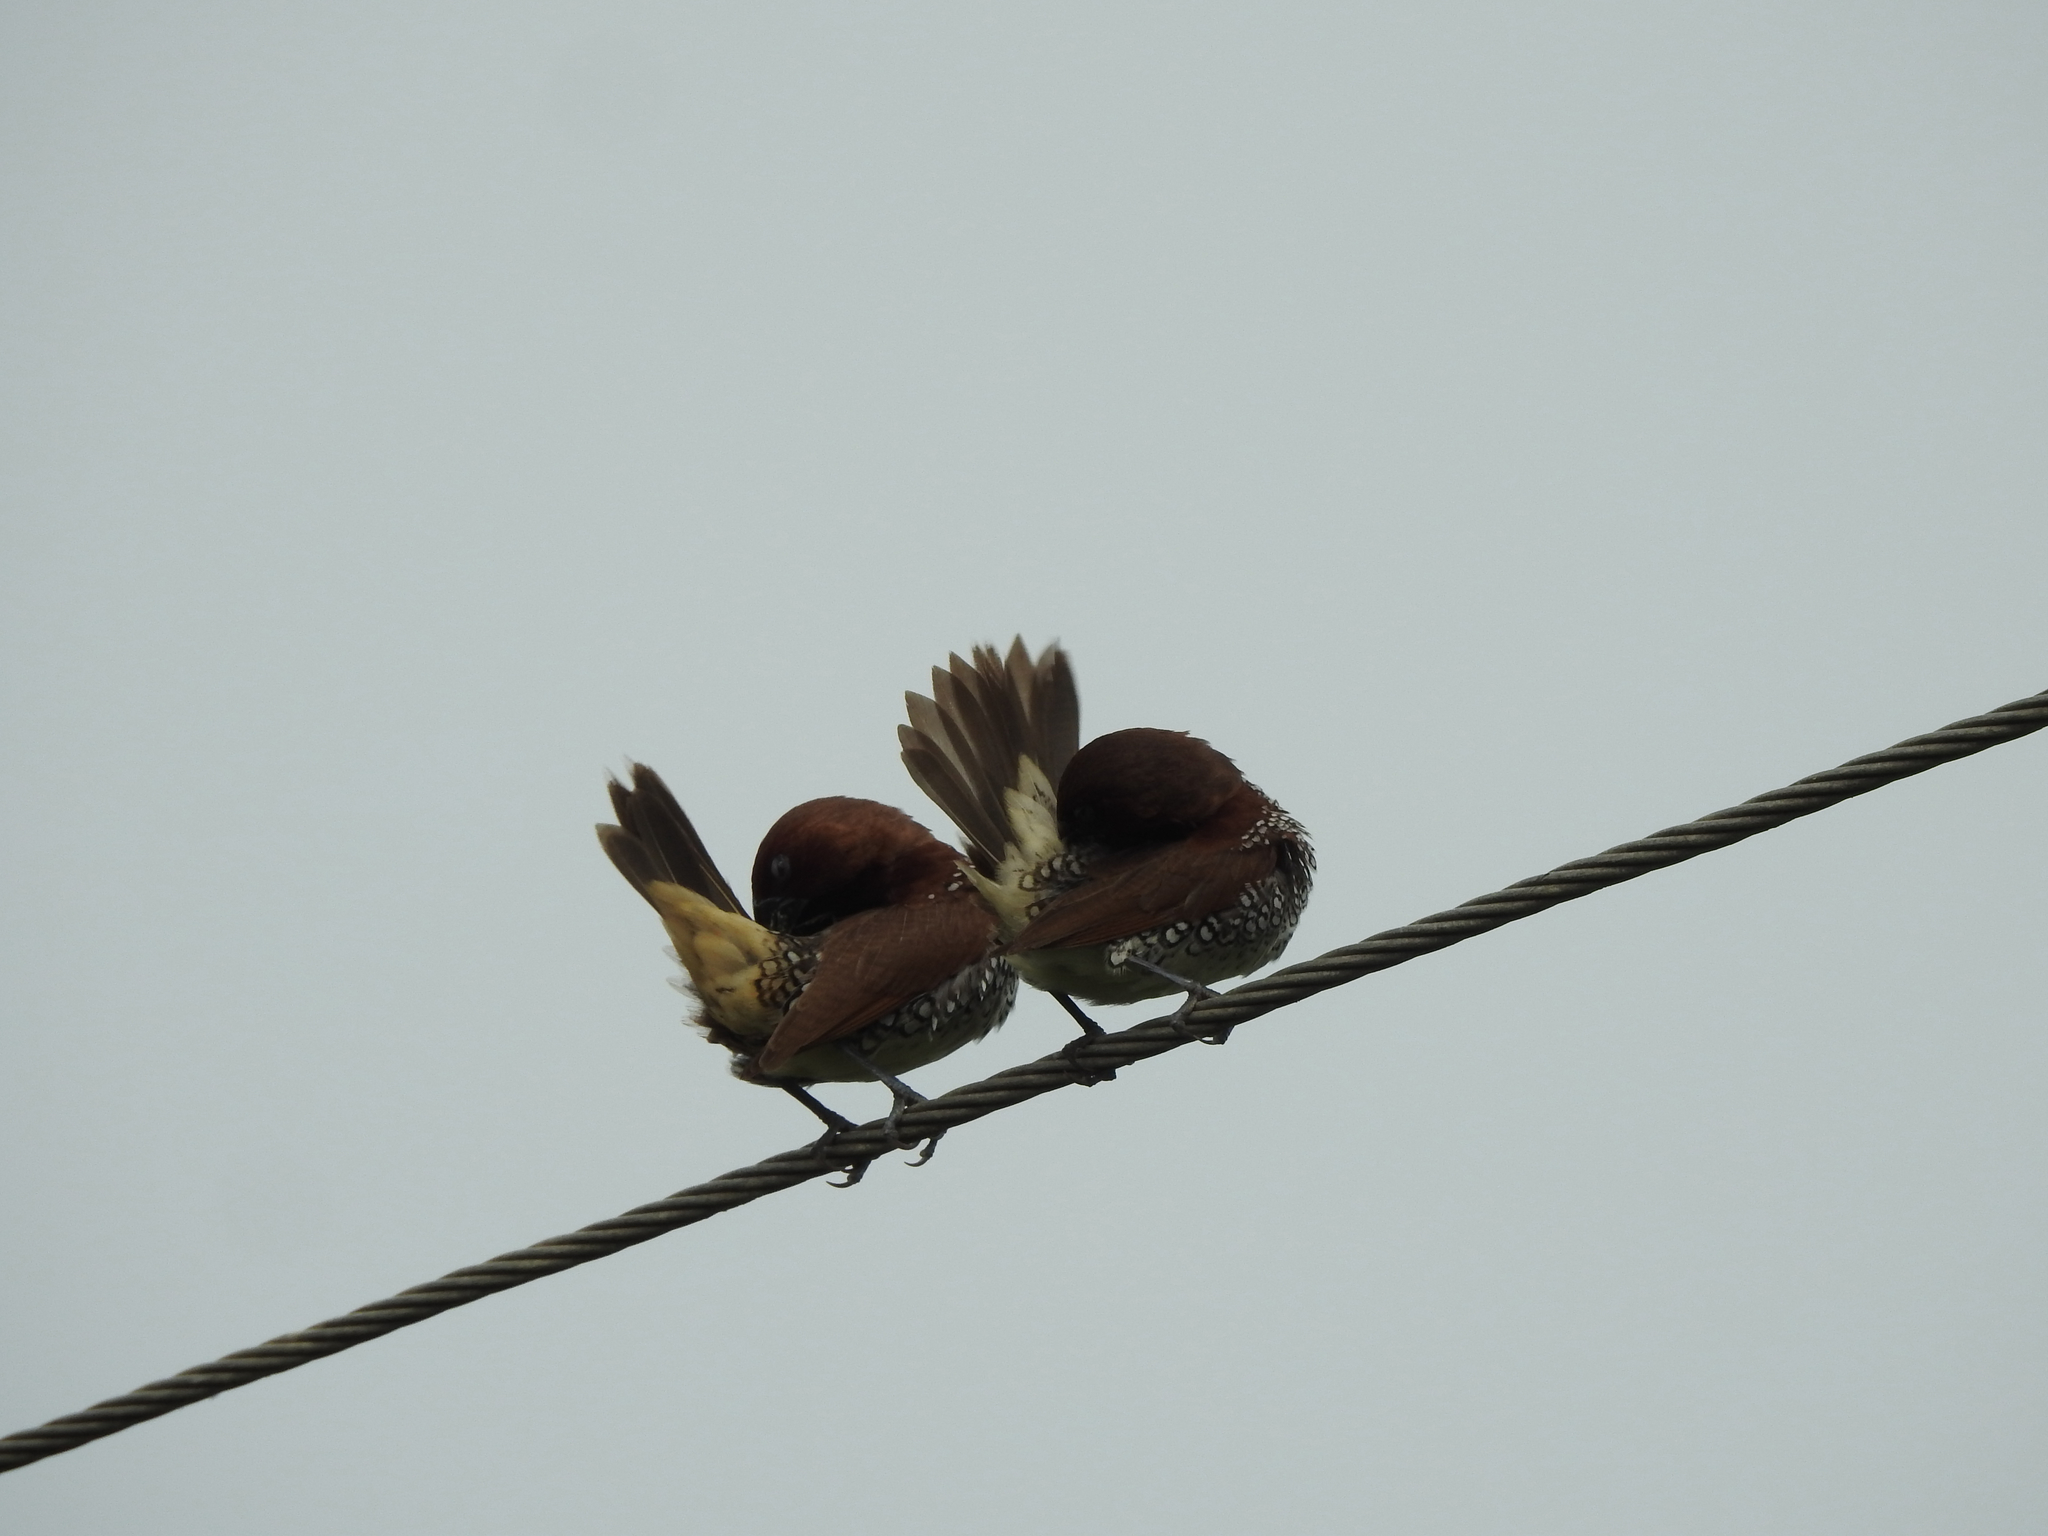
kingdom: Animalia
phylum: Chordata
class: Aves
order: Passeriformes
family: Estrildidae
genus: Lonchura
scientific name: Lonchura punctulata
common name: Scaly-breasted munia
